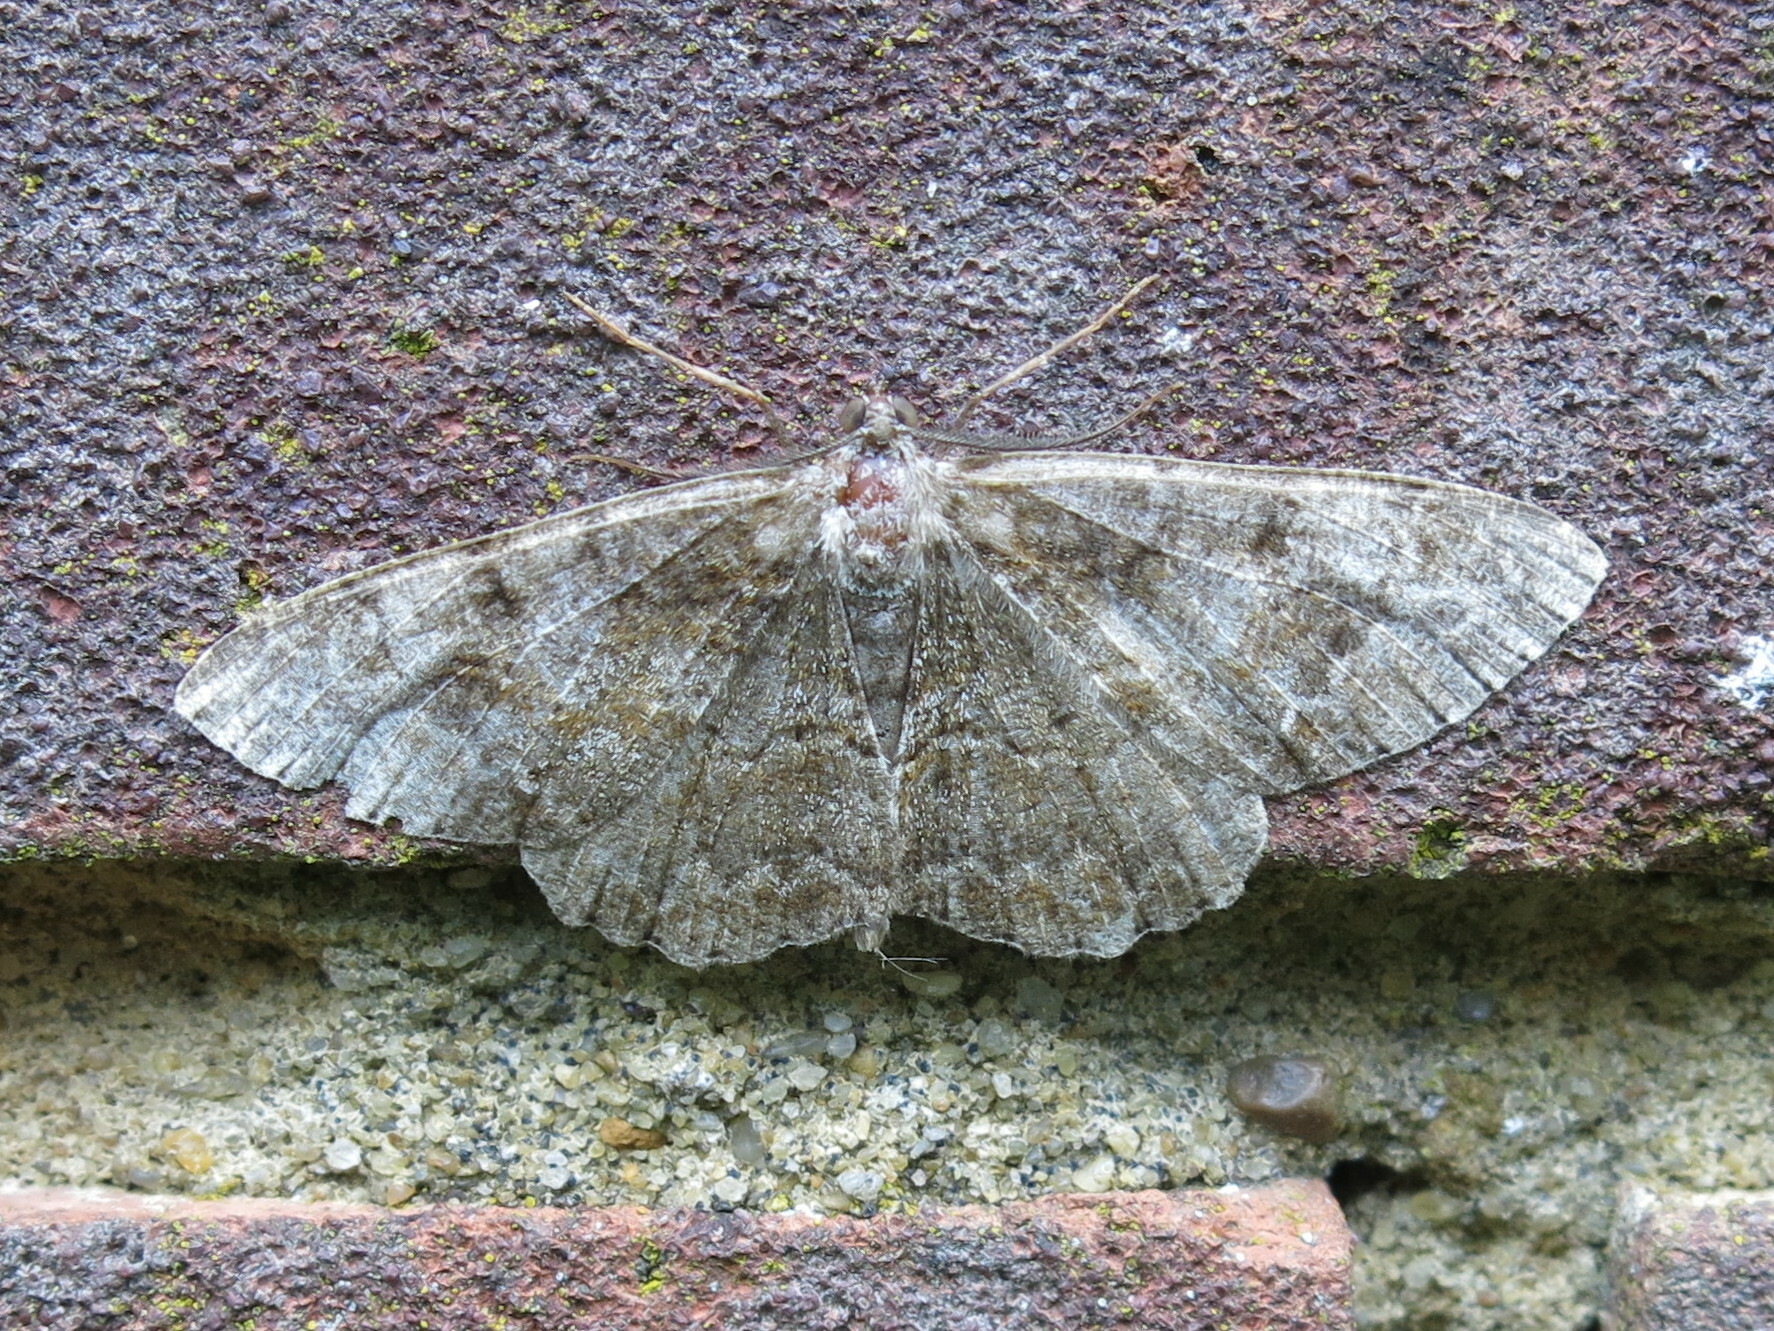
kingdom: Animalia
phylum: Arthropoda
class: Insecta
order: Lepidoptera
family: Geometridae
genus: Alcis
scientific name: Alcis repandata
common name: Mottled beauty
